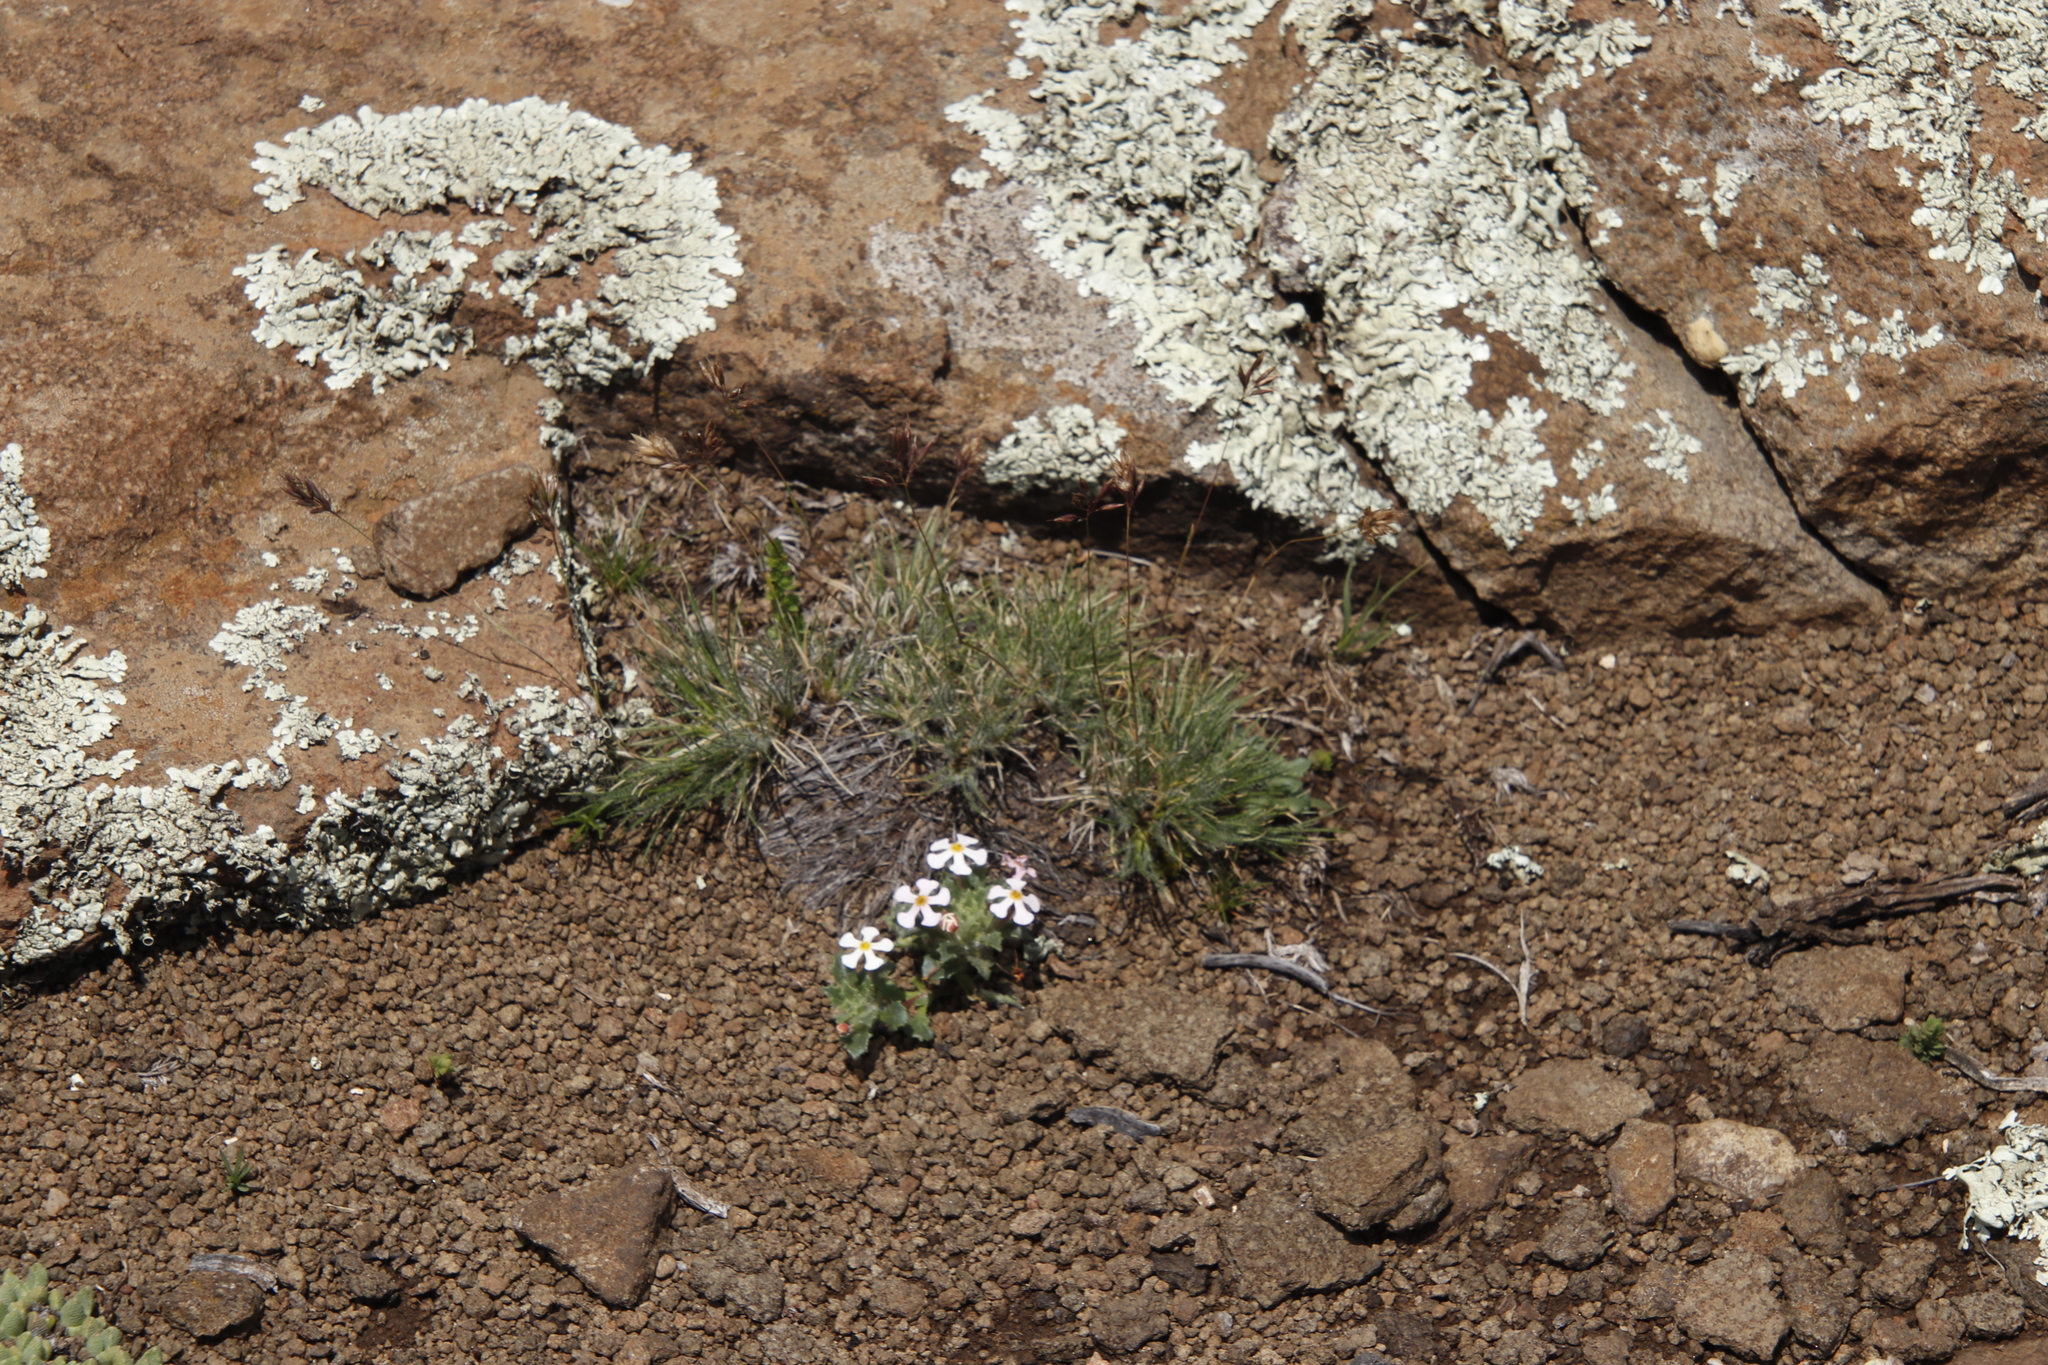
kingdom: Plantae
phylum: Tracheophyta
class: Magnoliopsida
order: Lamiales
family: Scrophulariaceae
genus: Zaluzianskya
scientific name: Zaluzianskya crocea
